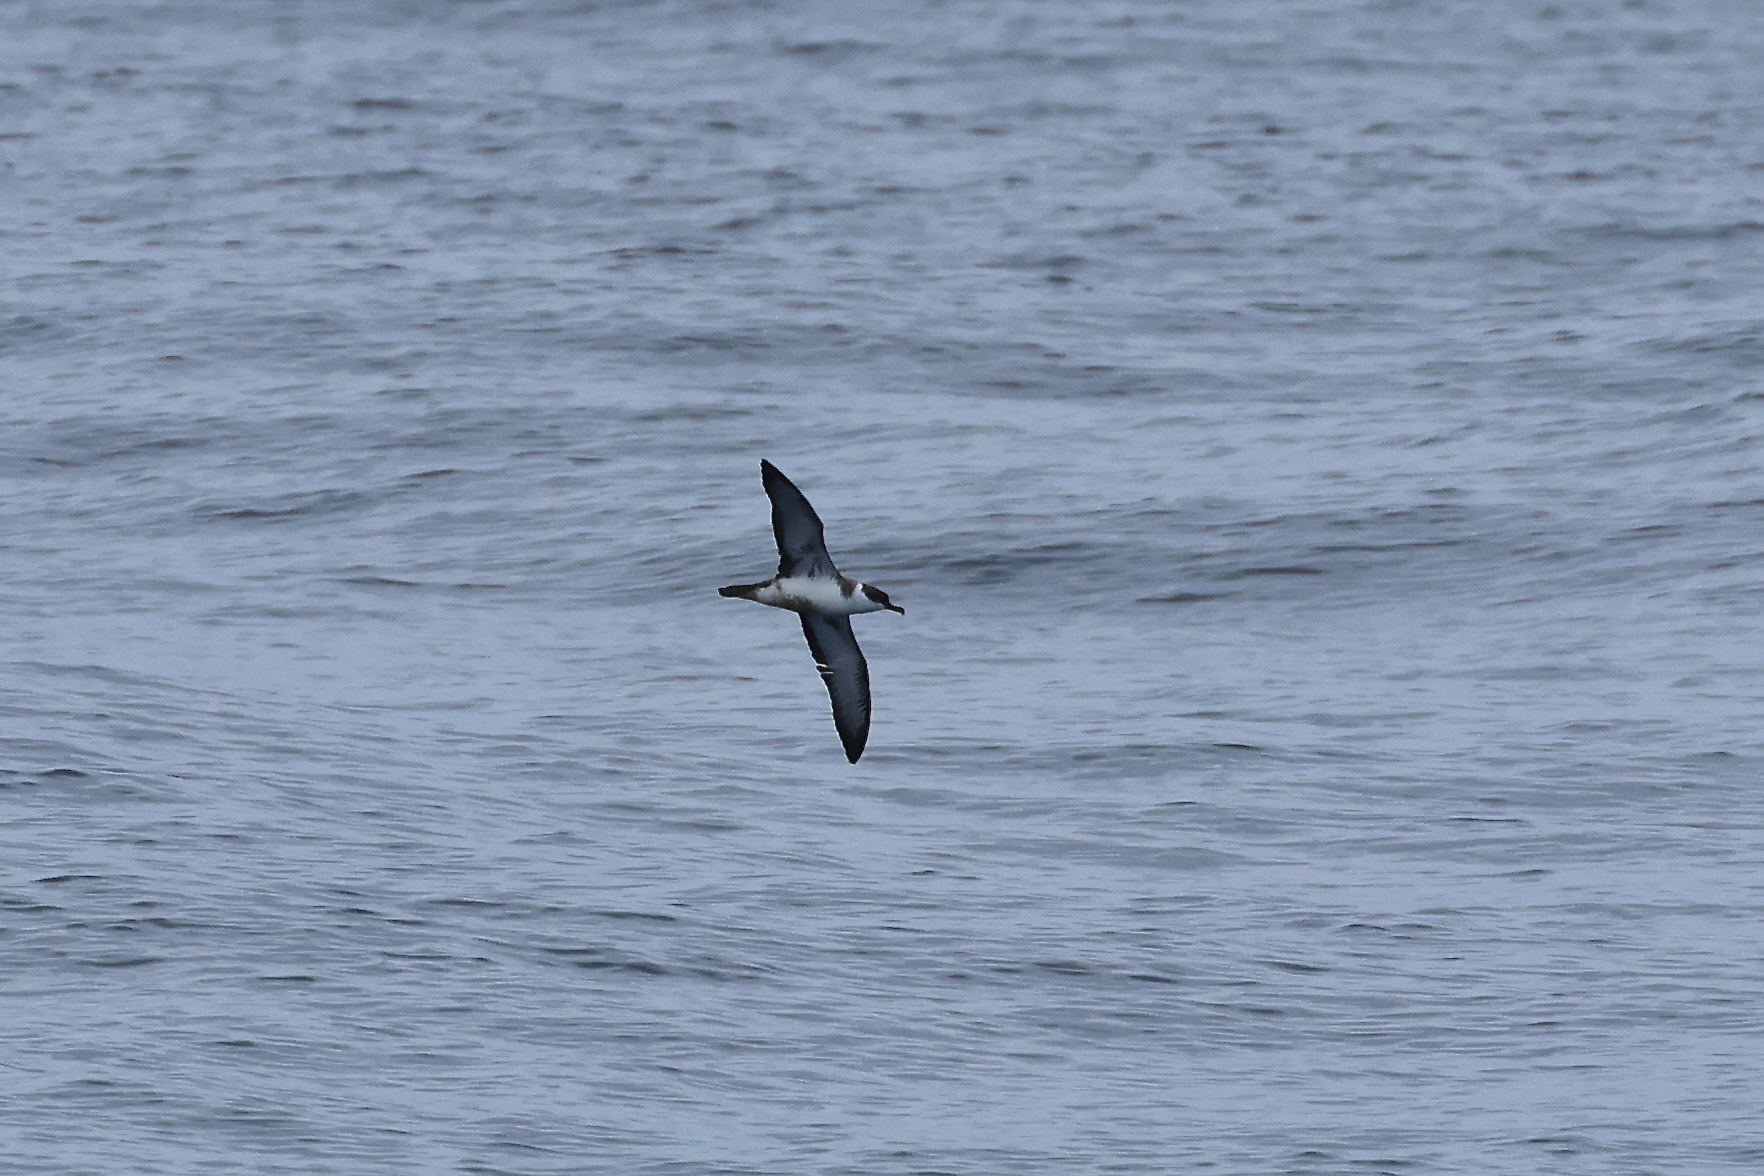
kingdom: Animalia
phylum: Chordata
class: Aves
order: Procellariiformes
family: Procellariidae
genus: Puffinus
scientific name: Puffinus gravis
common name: Great shearwater
